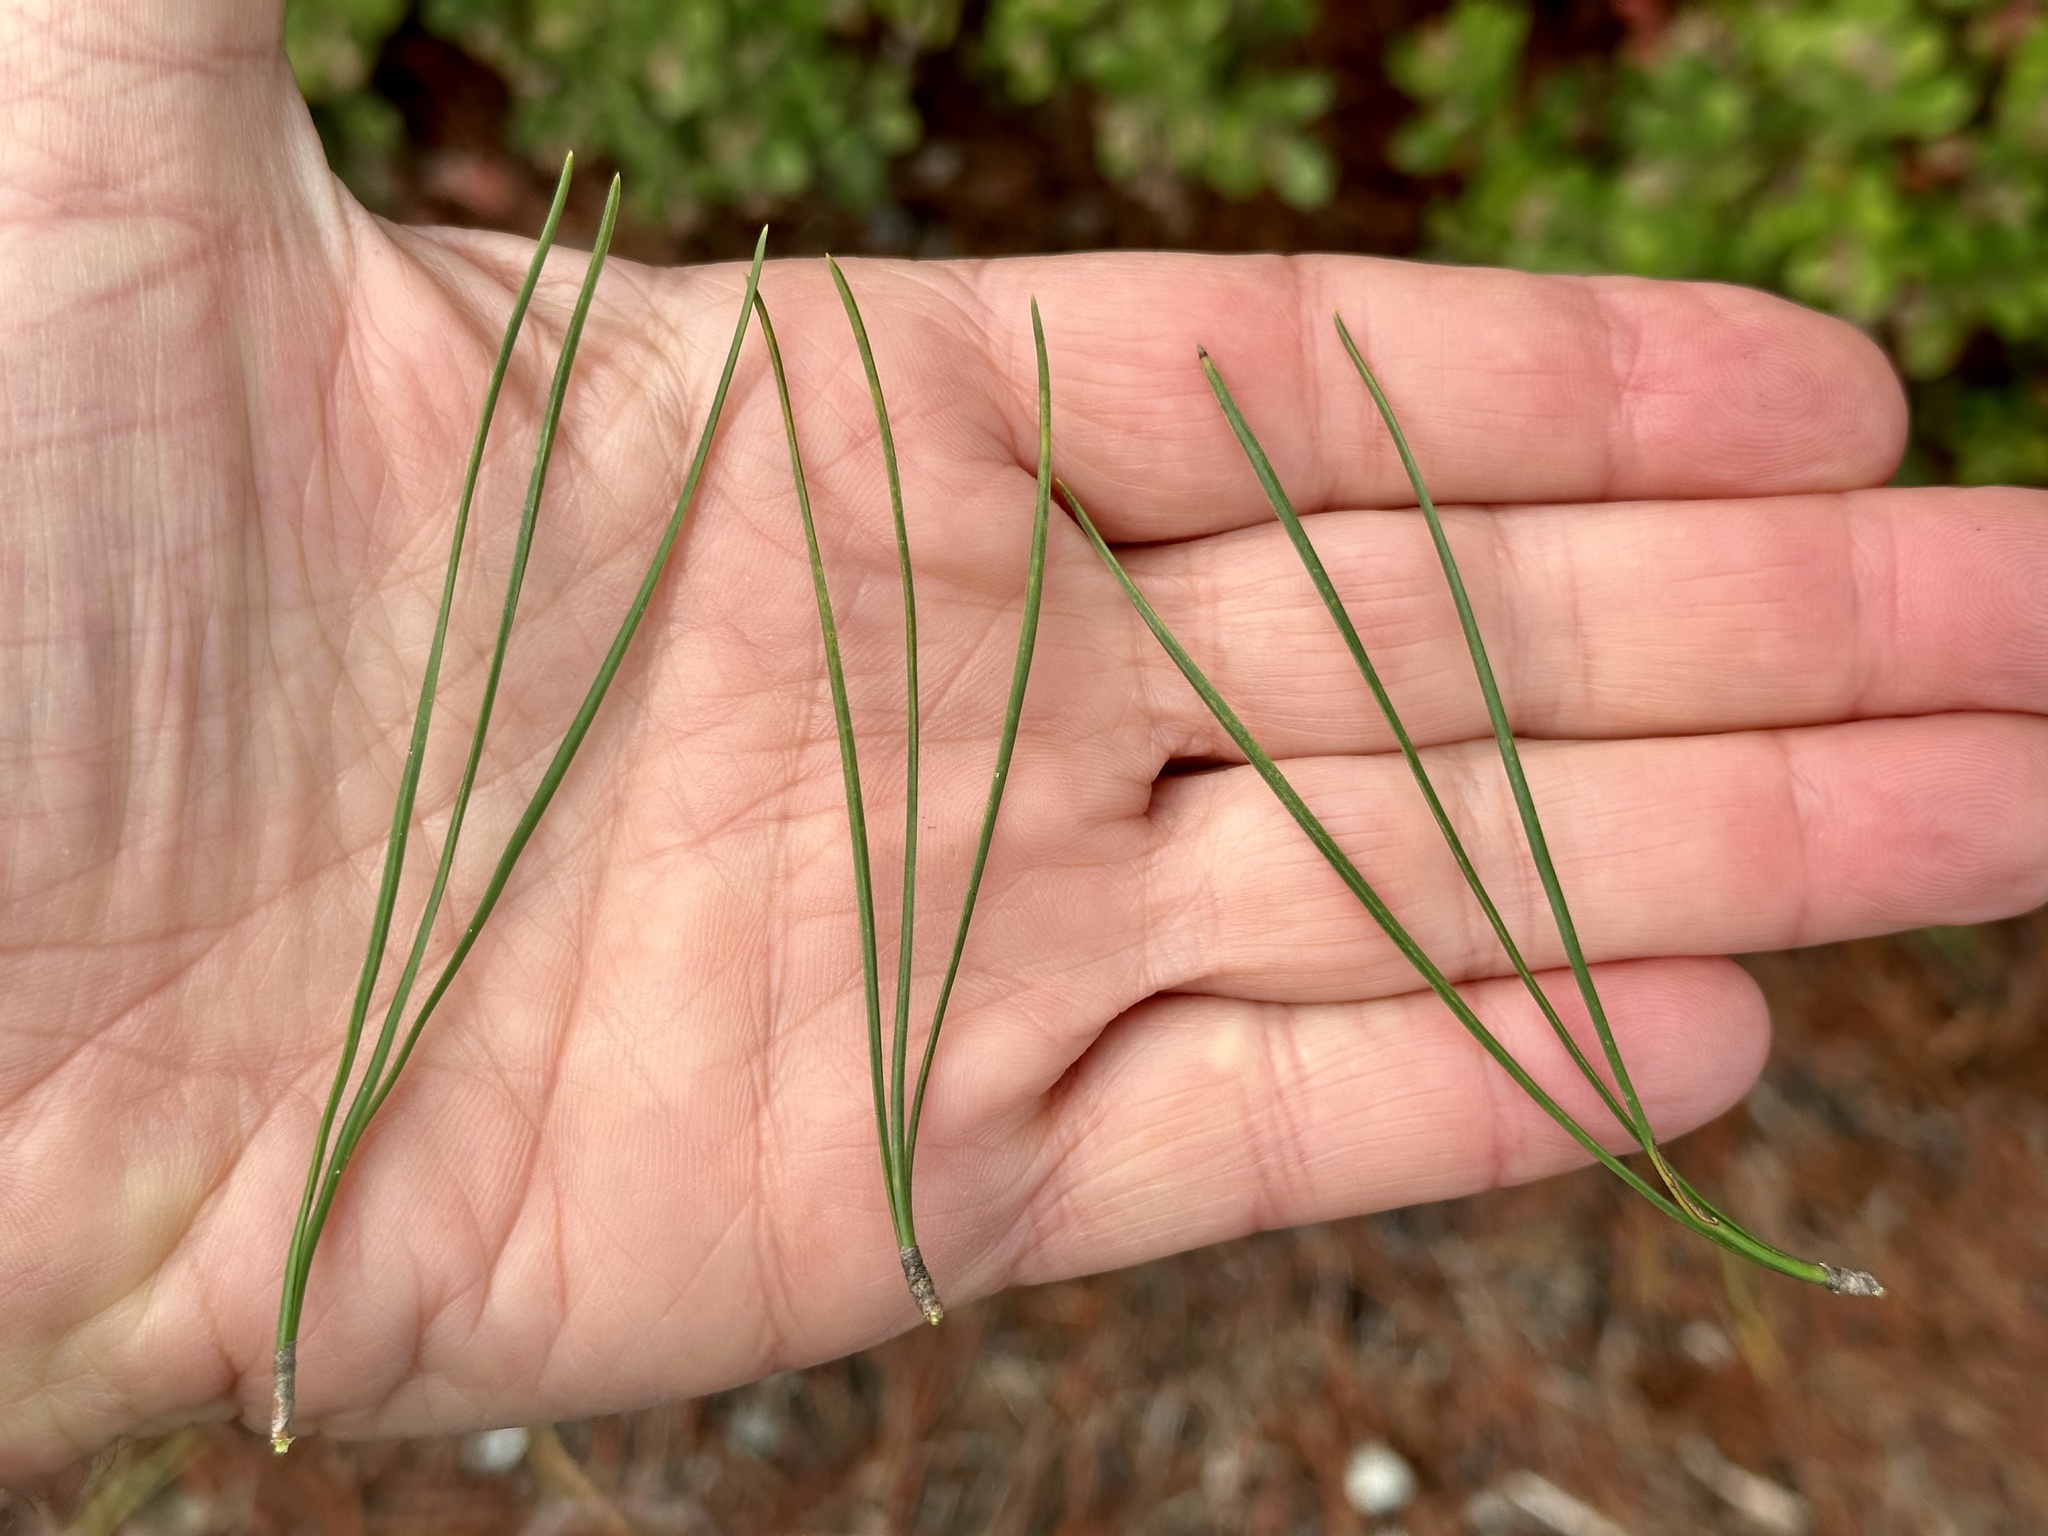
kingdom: Plantae
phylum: Tracheophyta
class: Pinopsida
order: Pinales
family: Pinaceae
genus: Pinus
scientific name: Pinus radiata
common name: Monterey pine
